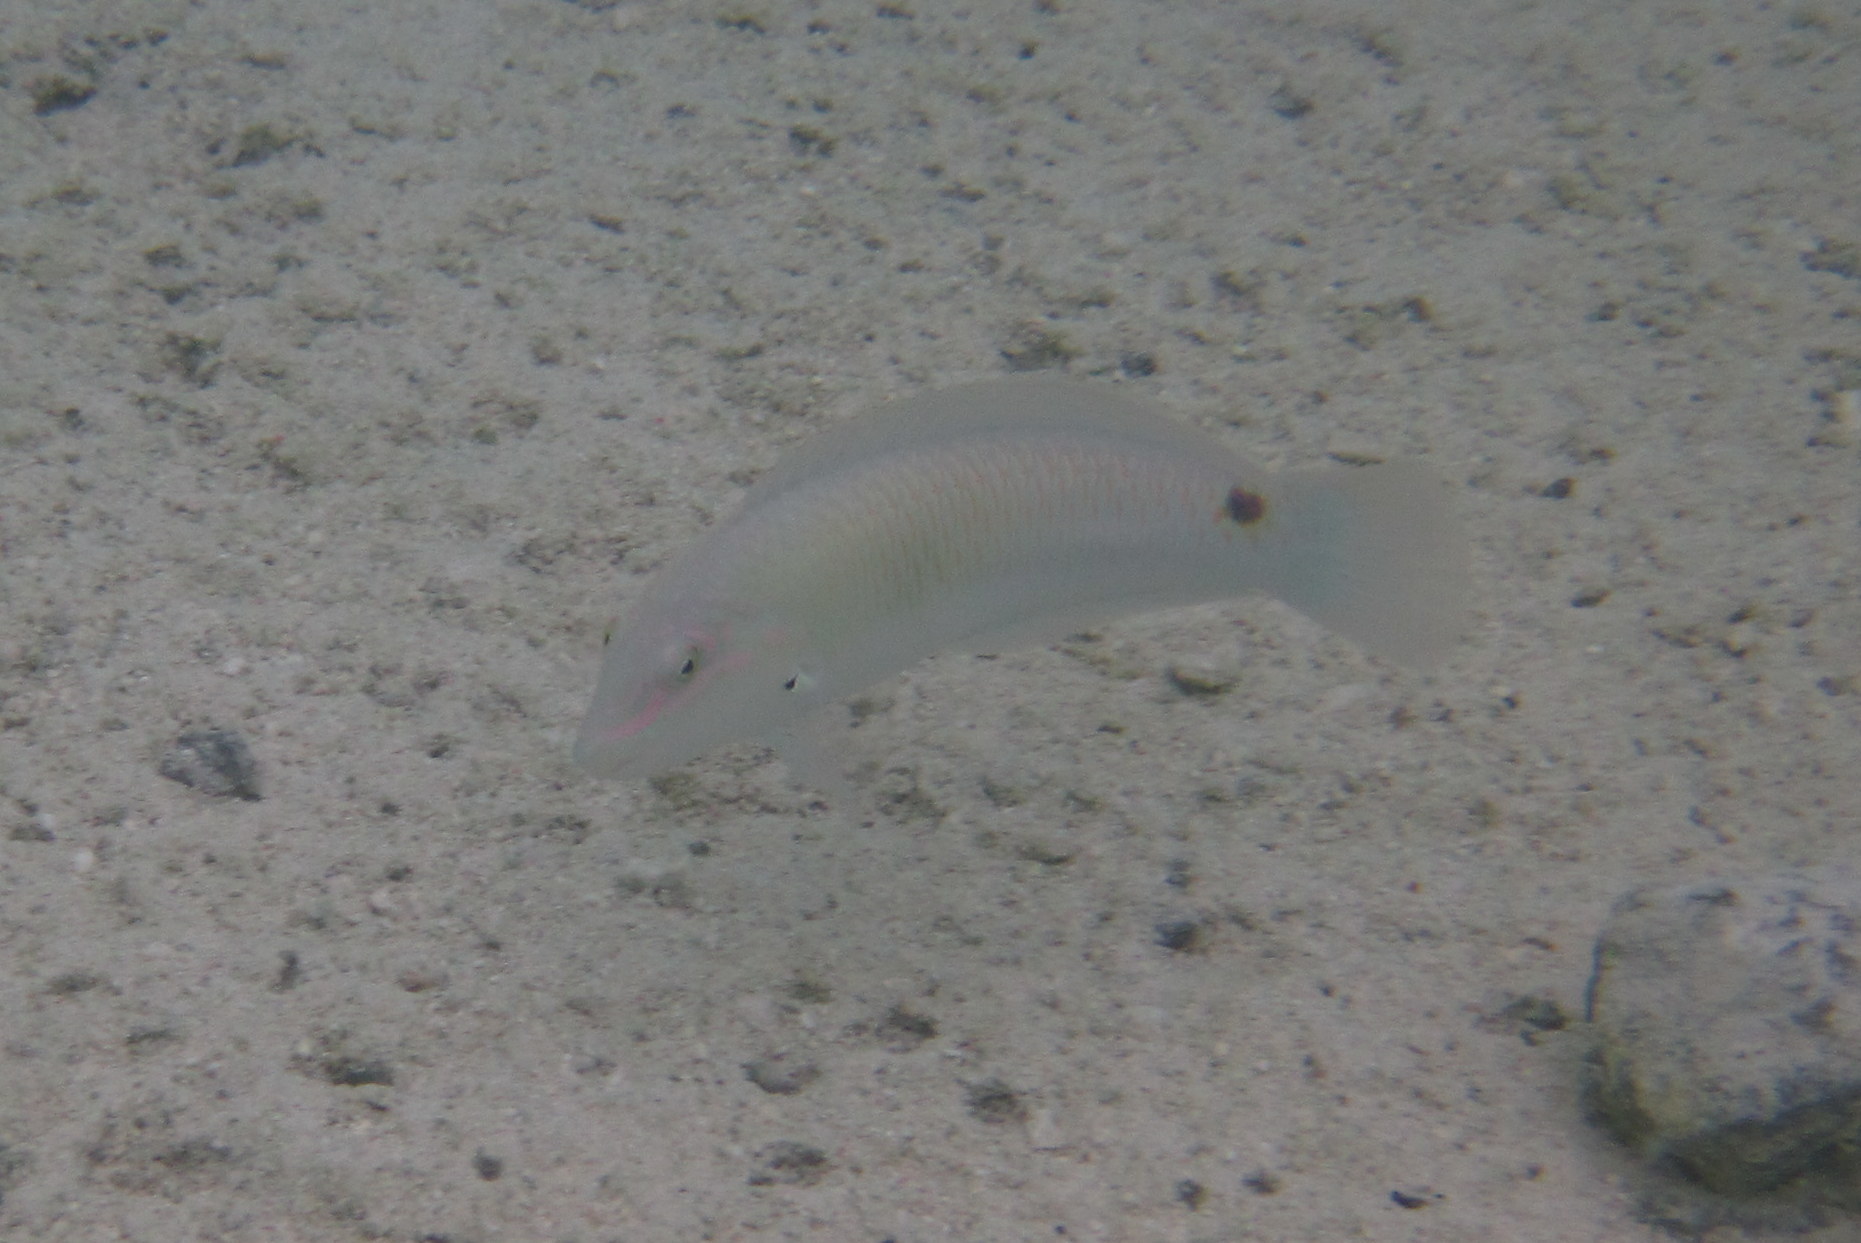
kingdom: Animalia
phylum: Chordata
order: Perciformes
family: Labridae
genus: Halichoeres
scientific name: Halichoeres trimaculatus
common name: Three-spot wrasse
